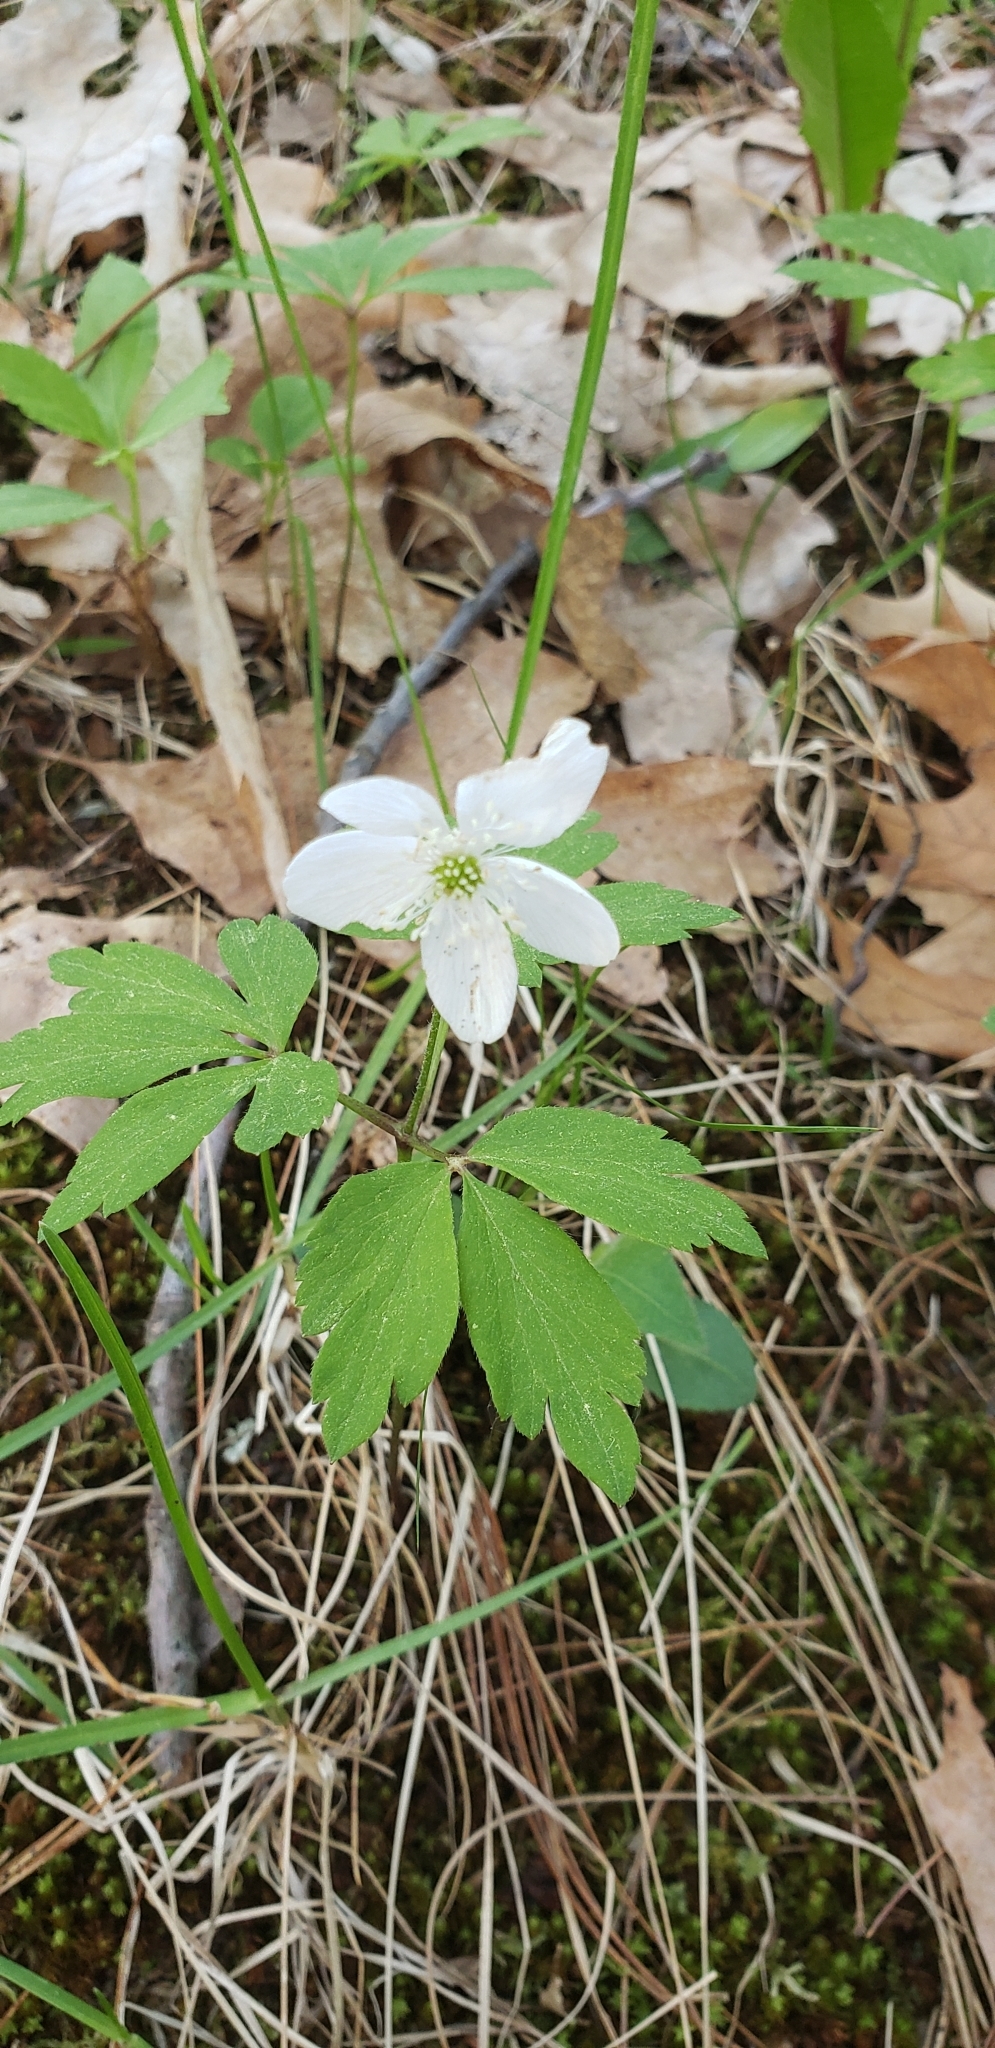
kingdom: Plantae
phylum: Tracheophyta
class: Magnoliopsida
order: Ranunculales
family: Ranunculaceae
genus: Anemone
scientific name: Anemone quinquefolia
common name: Wood anemone
